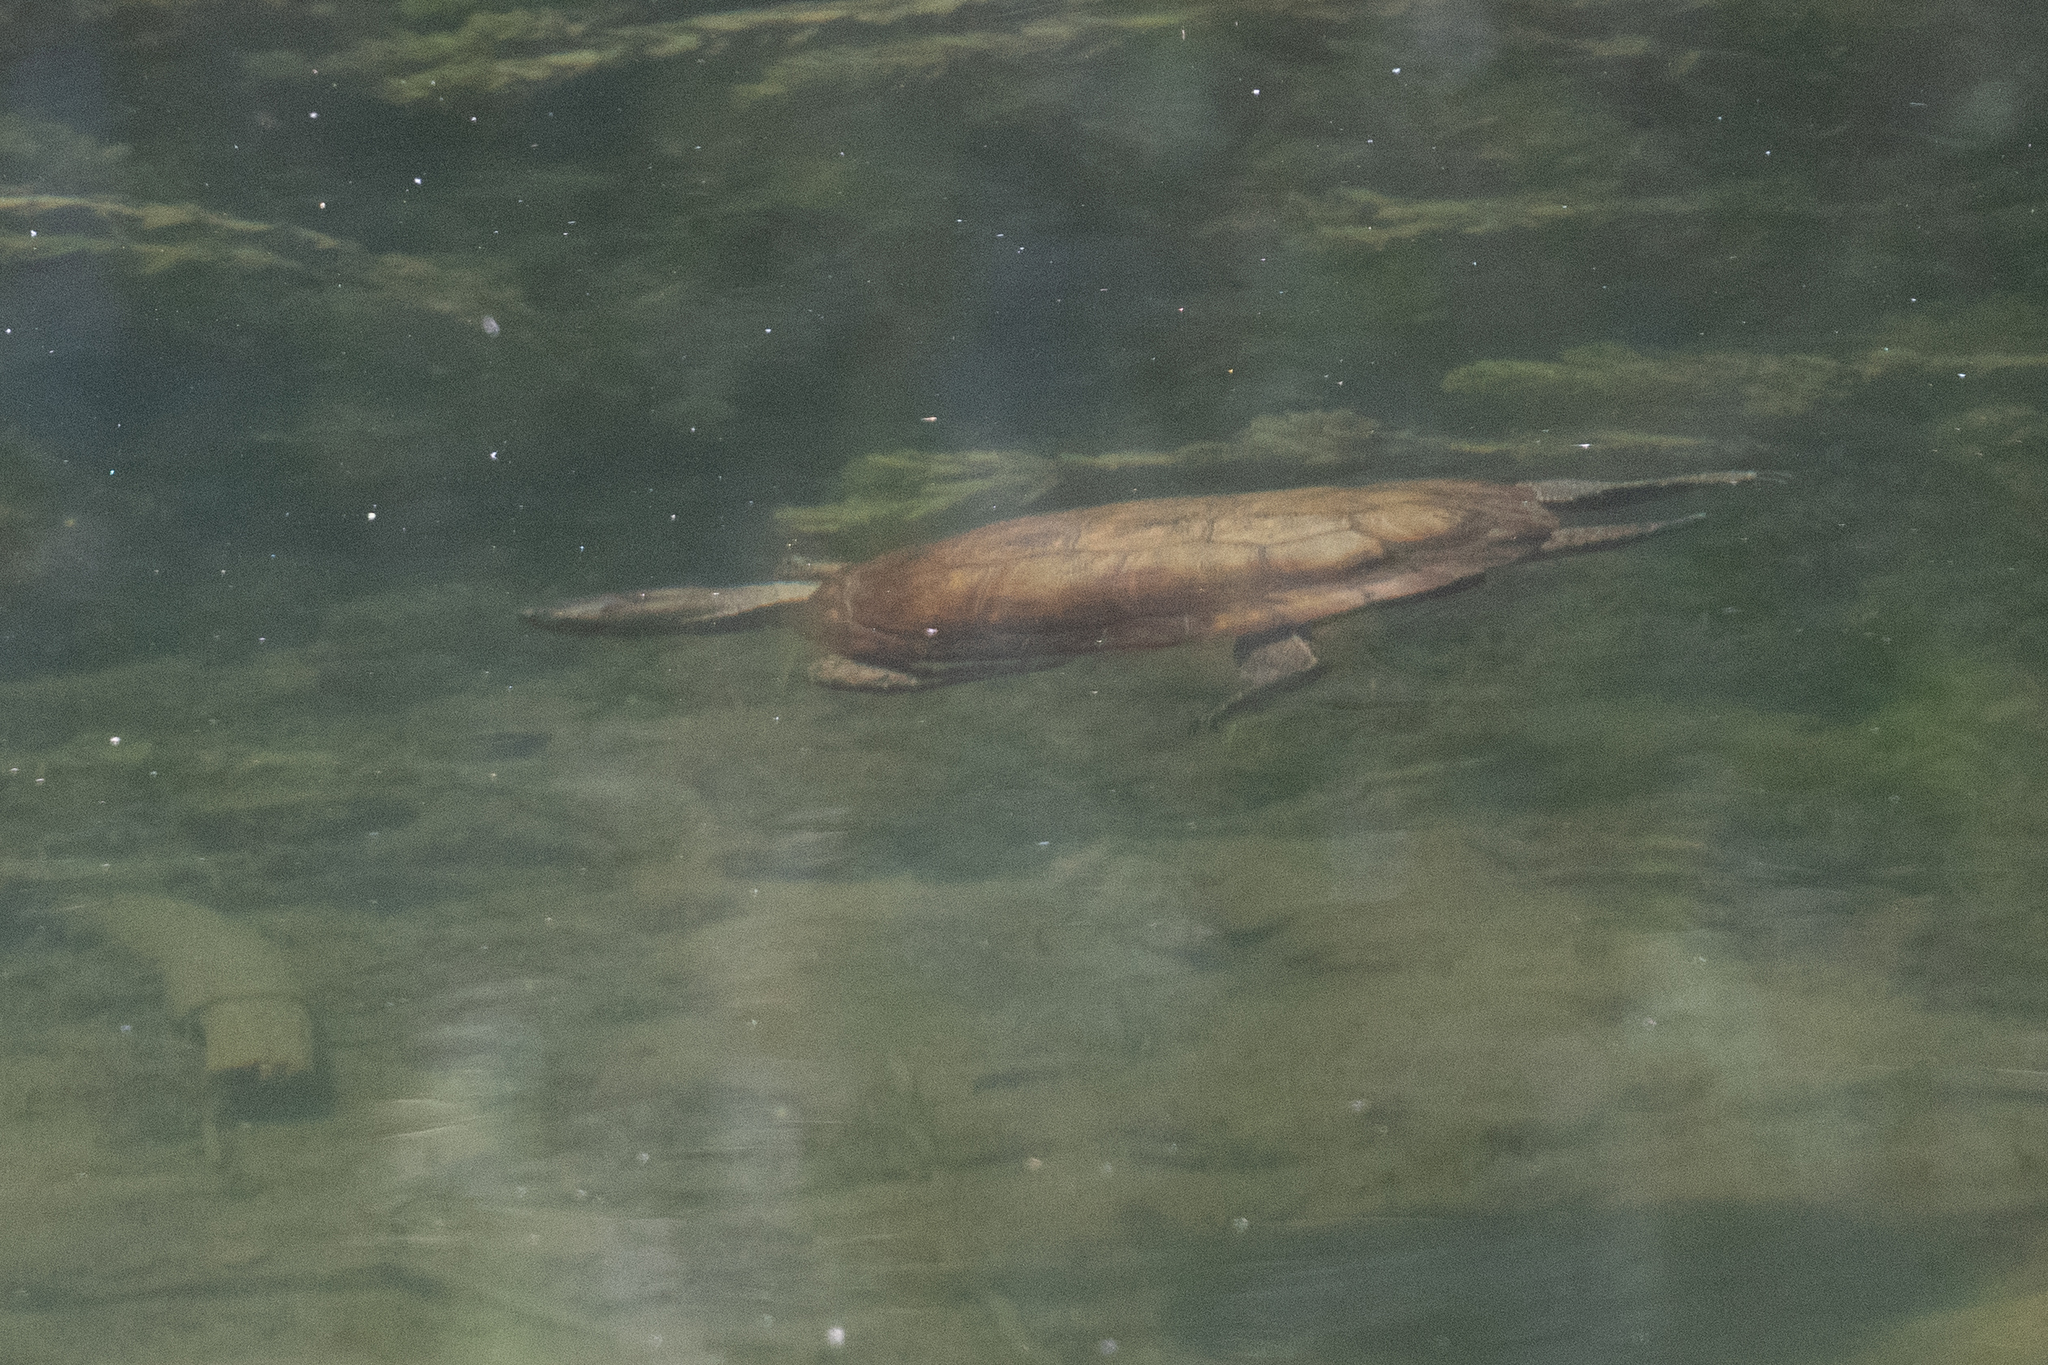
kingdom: Animalia
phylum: Chordata
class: Testudines
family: Emydidae
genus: Actinemys
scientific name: Actinemys marmorata
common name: Western pond turtle
